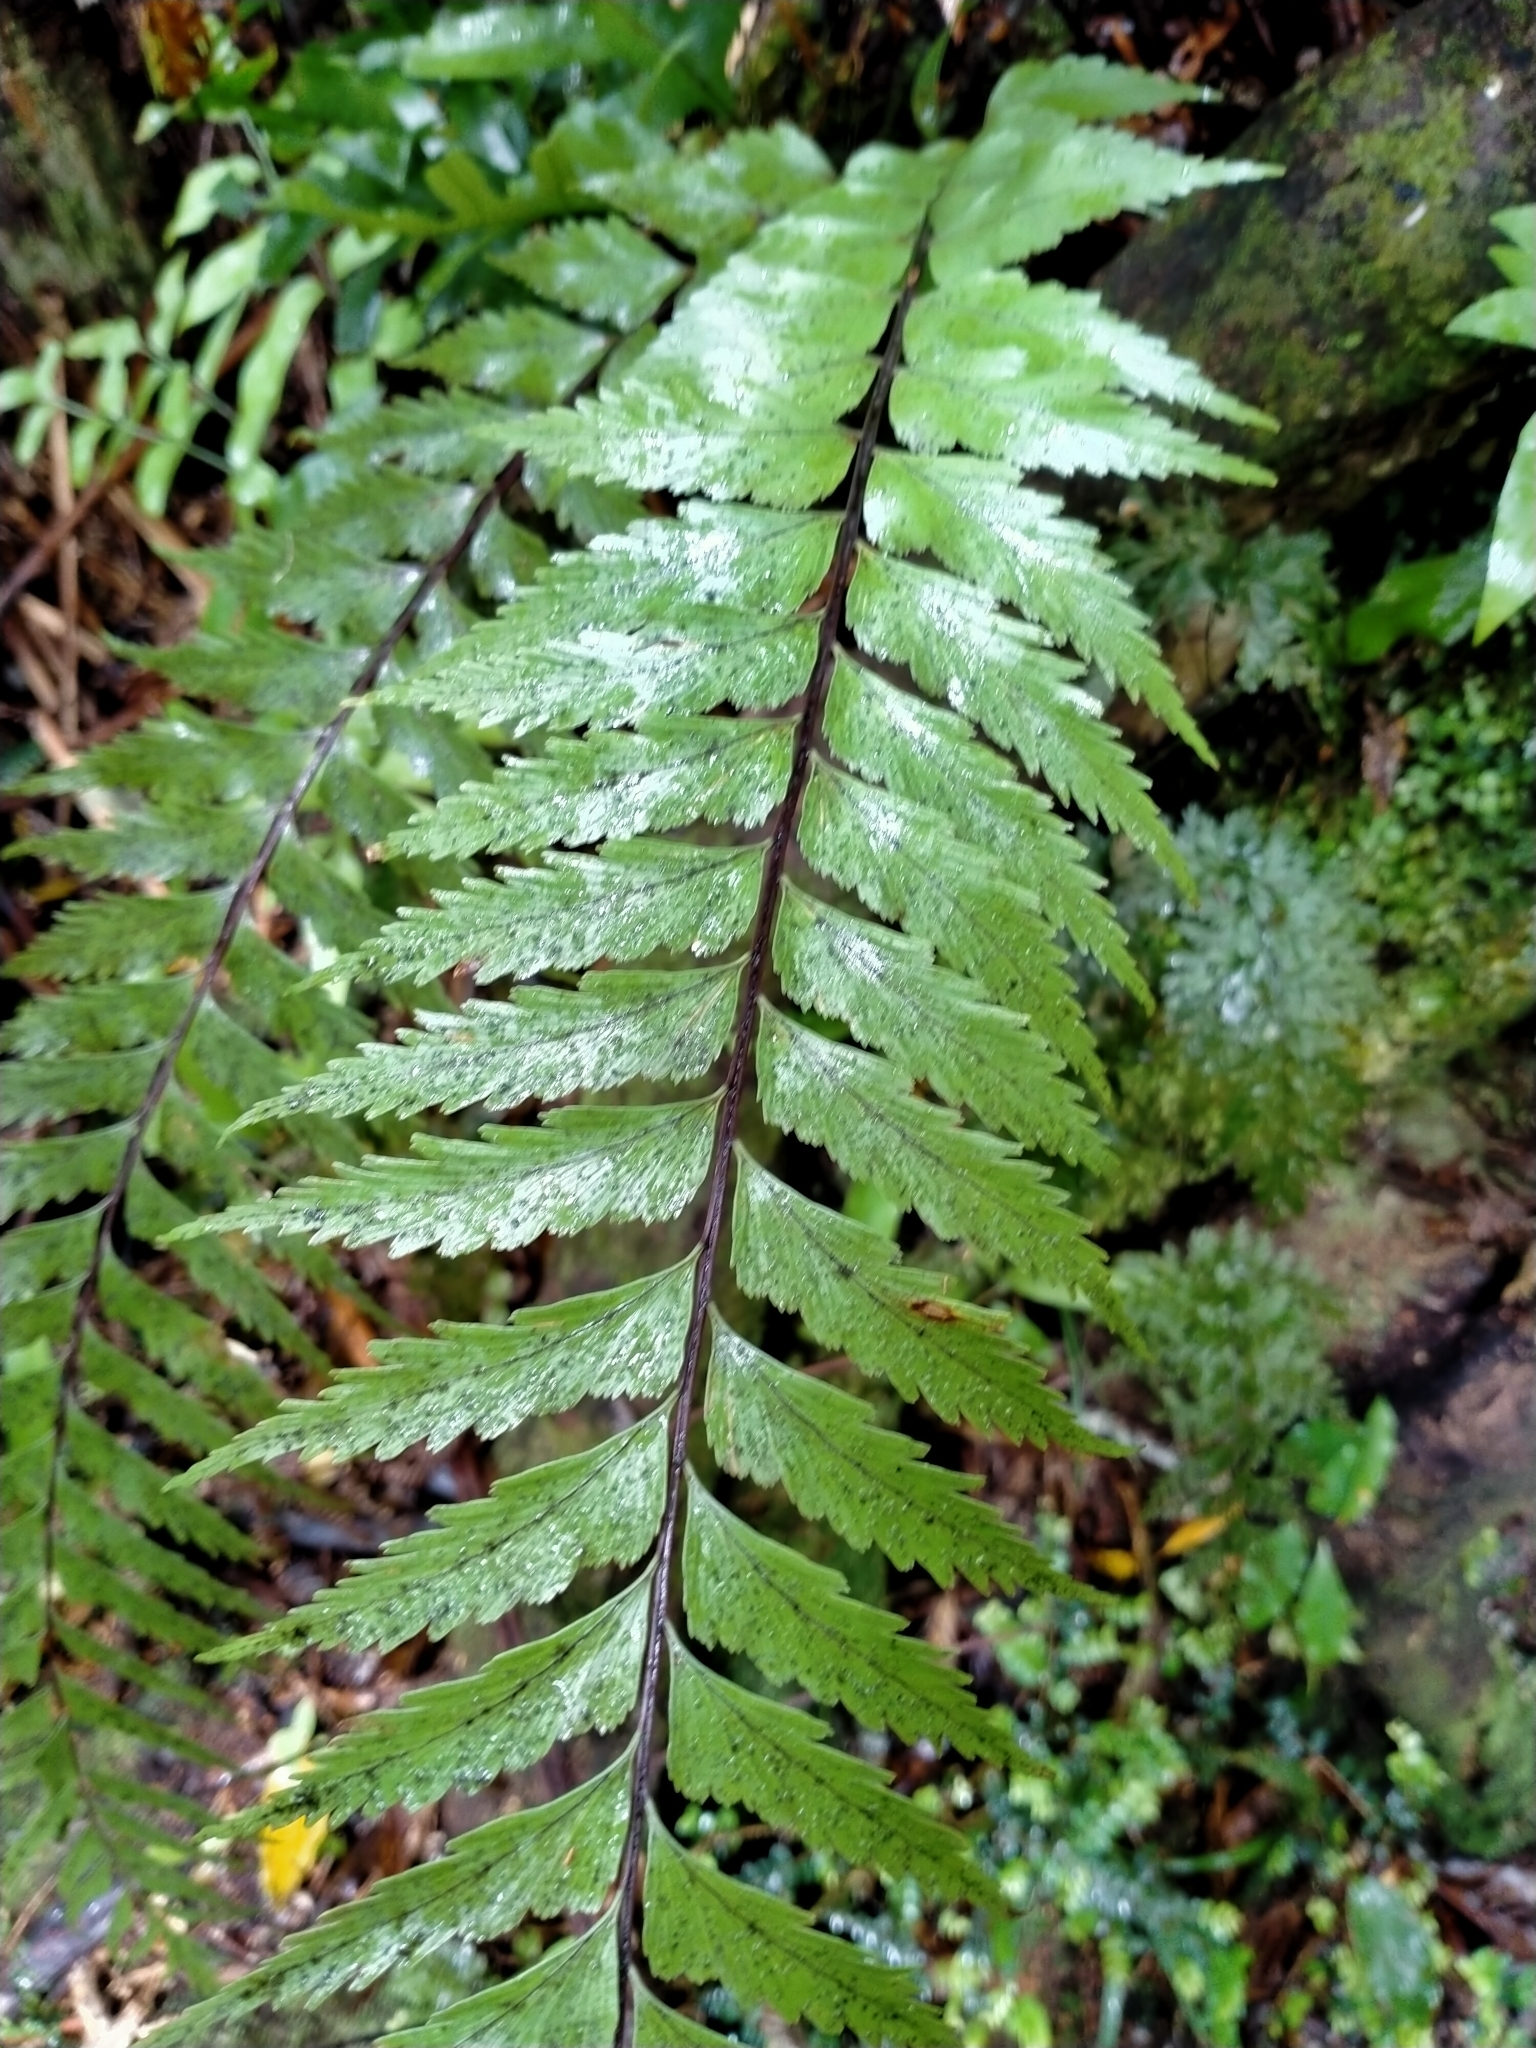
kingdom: Plantae
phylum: Tracheophyta
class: Polypodiopsida
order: Polypodiales
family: Aspleniaceae
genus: Asplenium
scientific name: Asplenium polyodon
